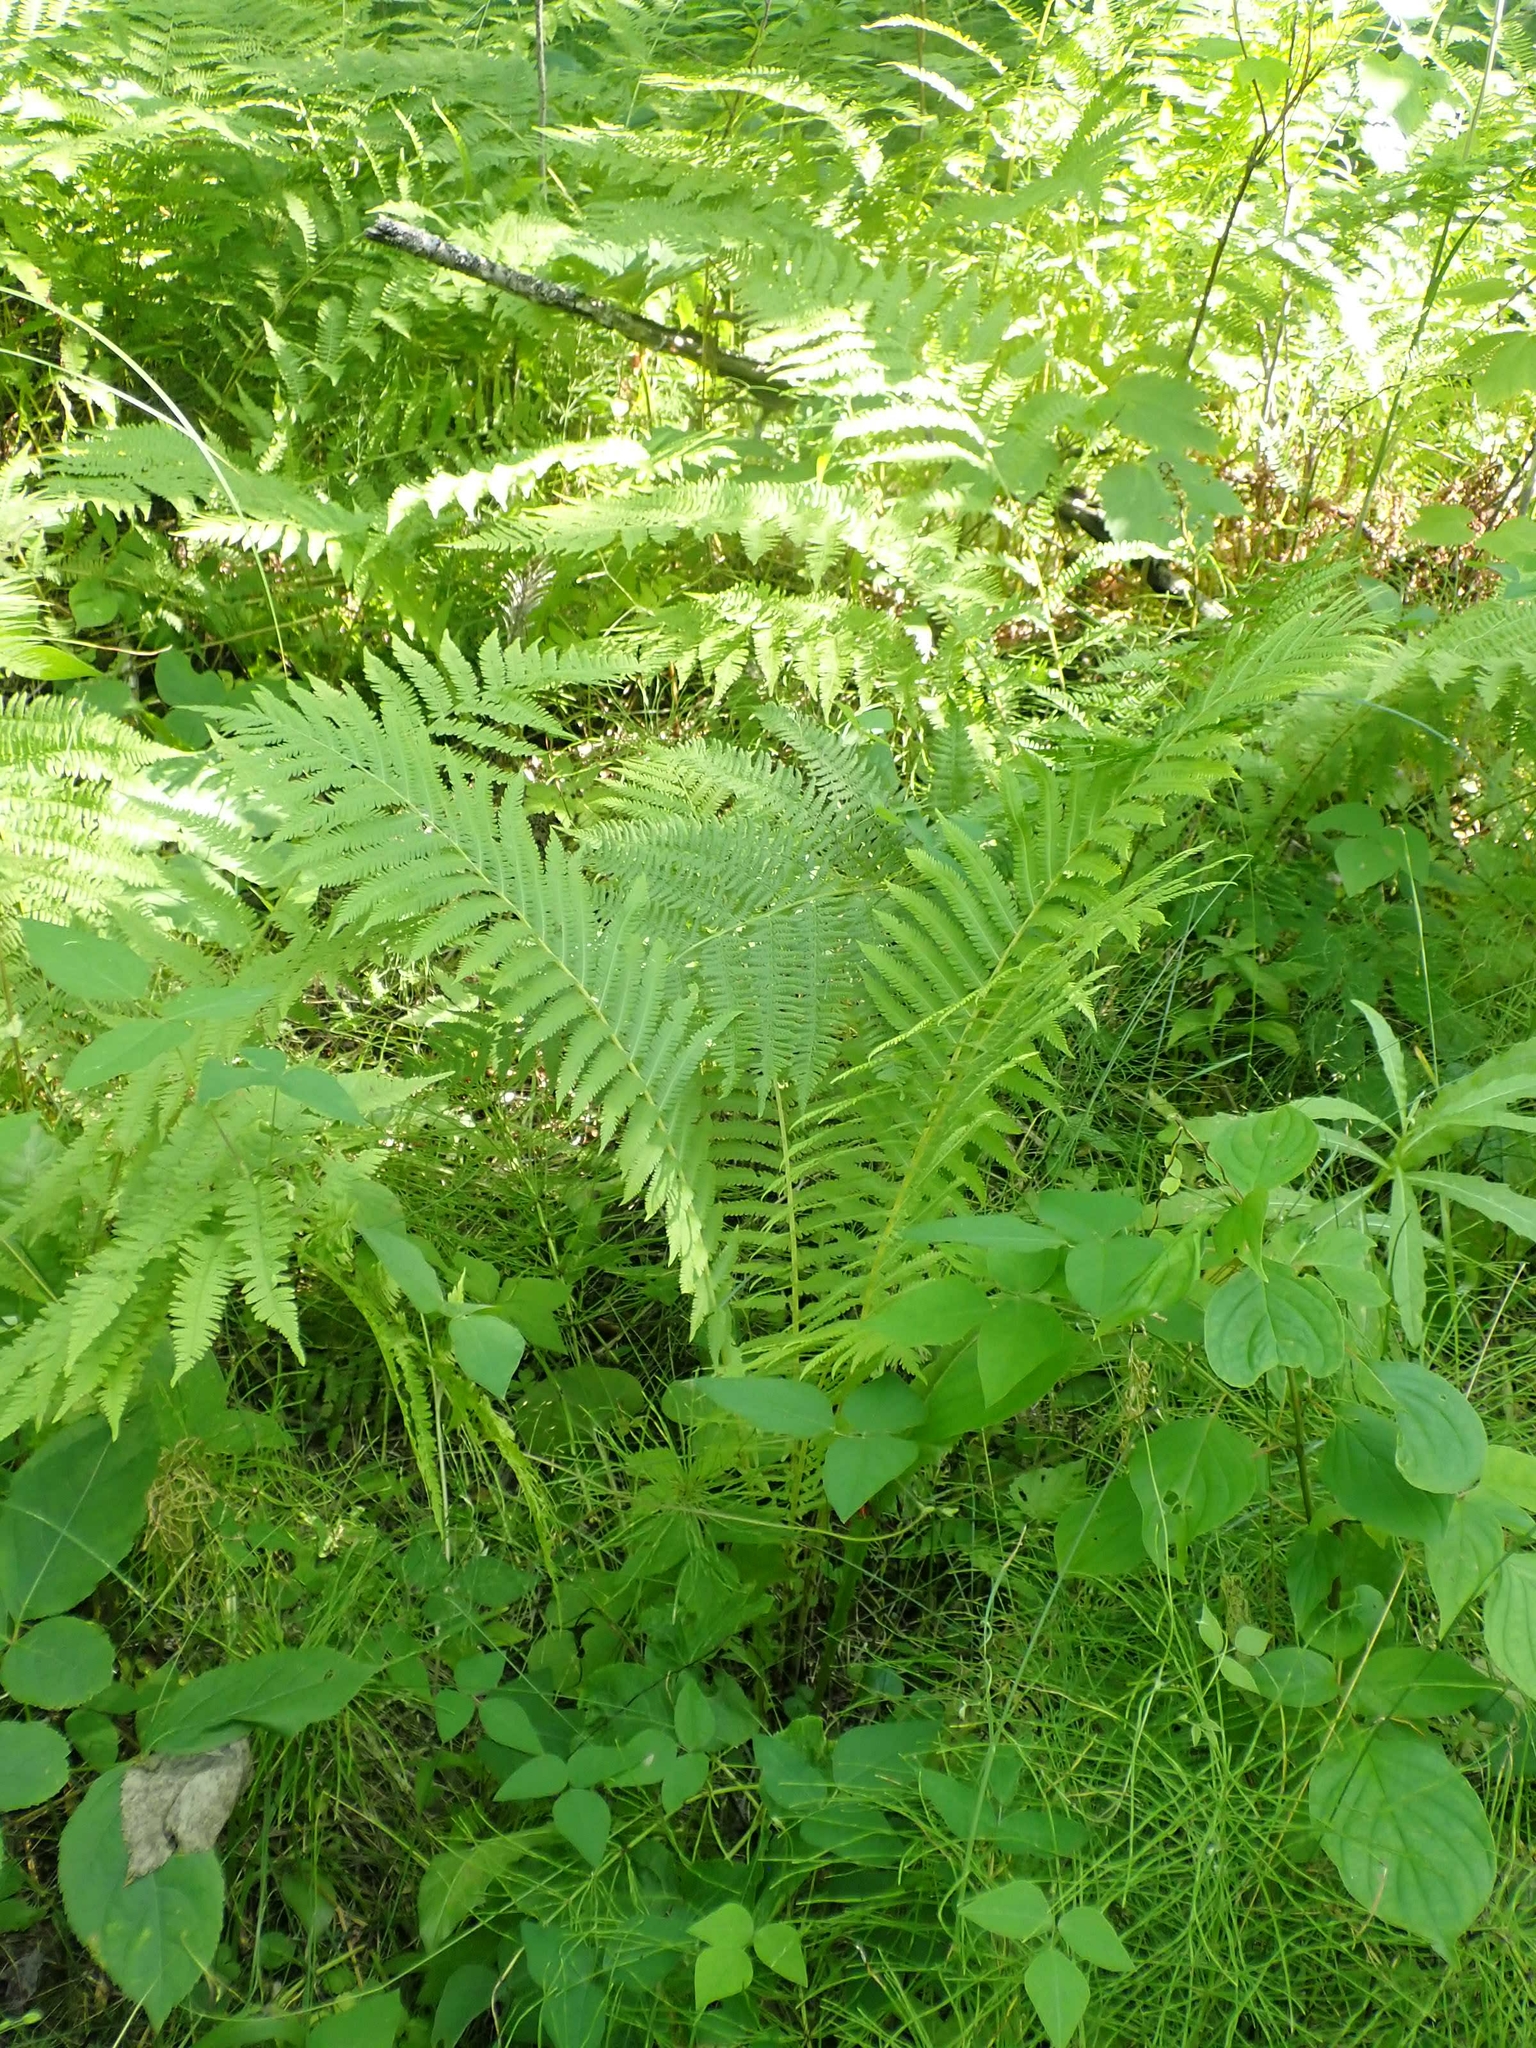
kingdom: Plantae
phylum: Tracheophyta
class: Polypodiopsida
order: Polypodiales
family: Onocleaceae
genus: Matteuccia
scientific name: Matteuccia struthiopteris
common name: Ostrich fern
